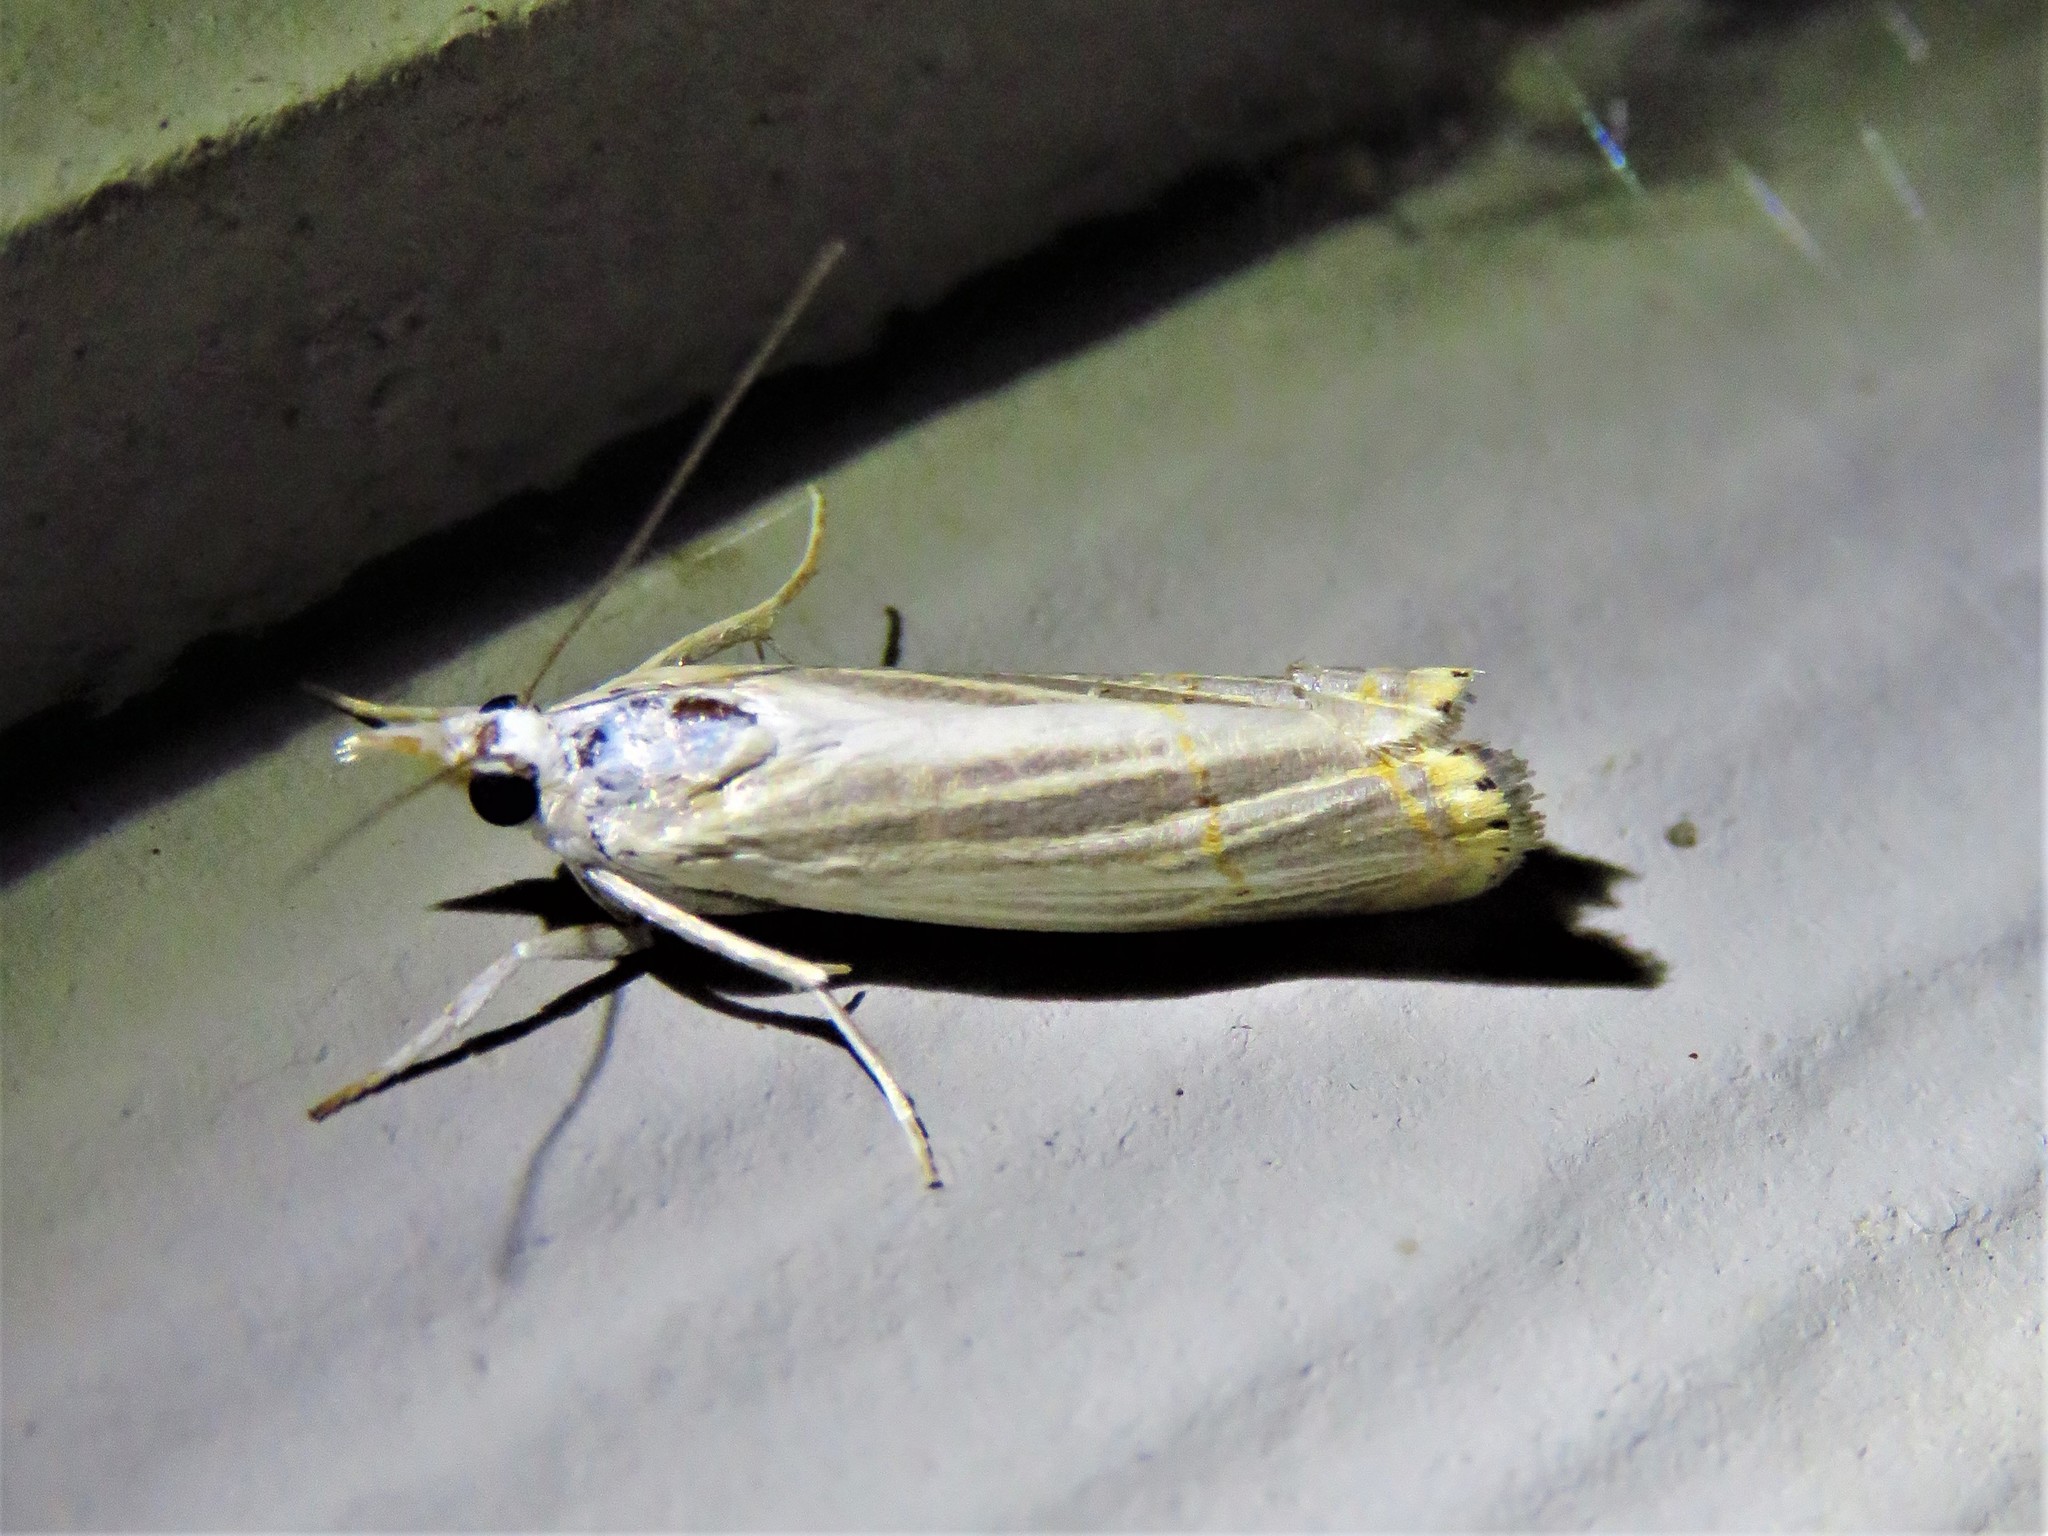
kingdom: Animalia
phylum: Arthropoda
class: Insecta
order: Lepidoptera
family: Crambidae
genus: Parapediasia
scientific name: Parapediasia decorellus
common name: Graceful grass-veneer
